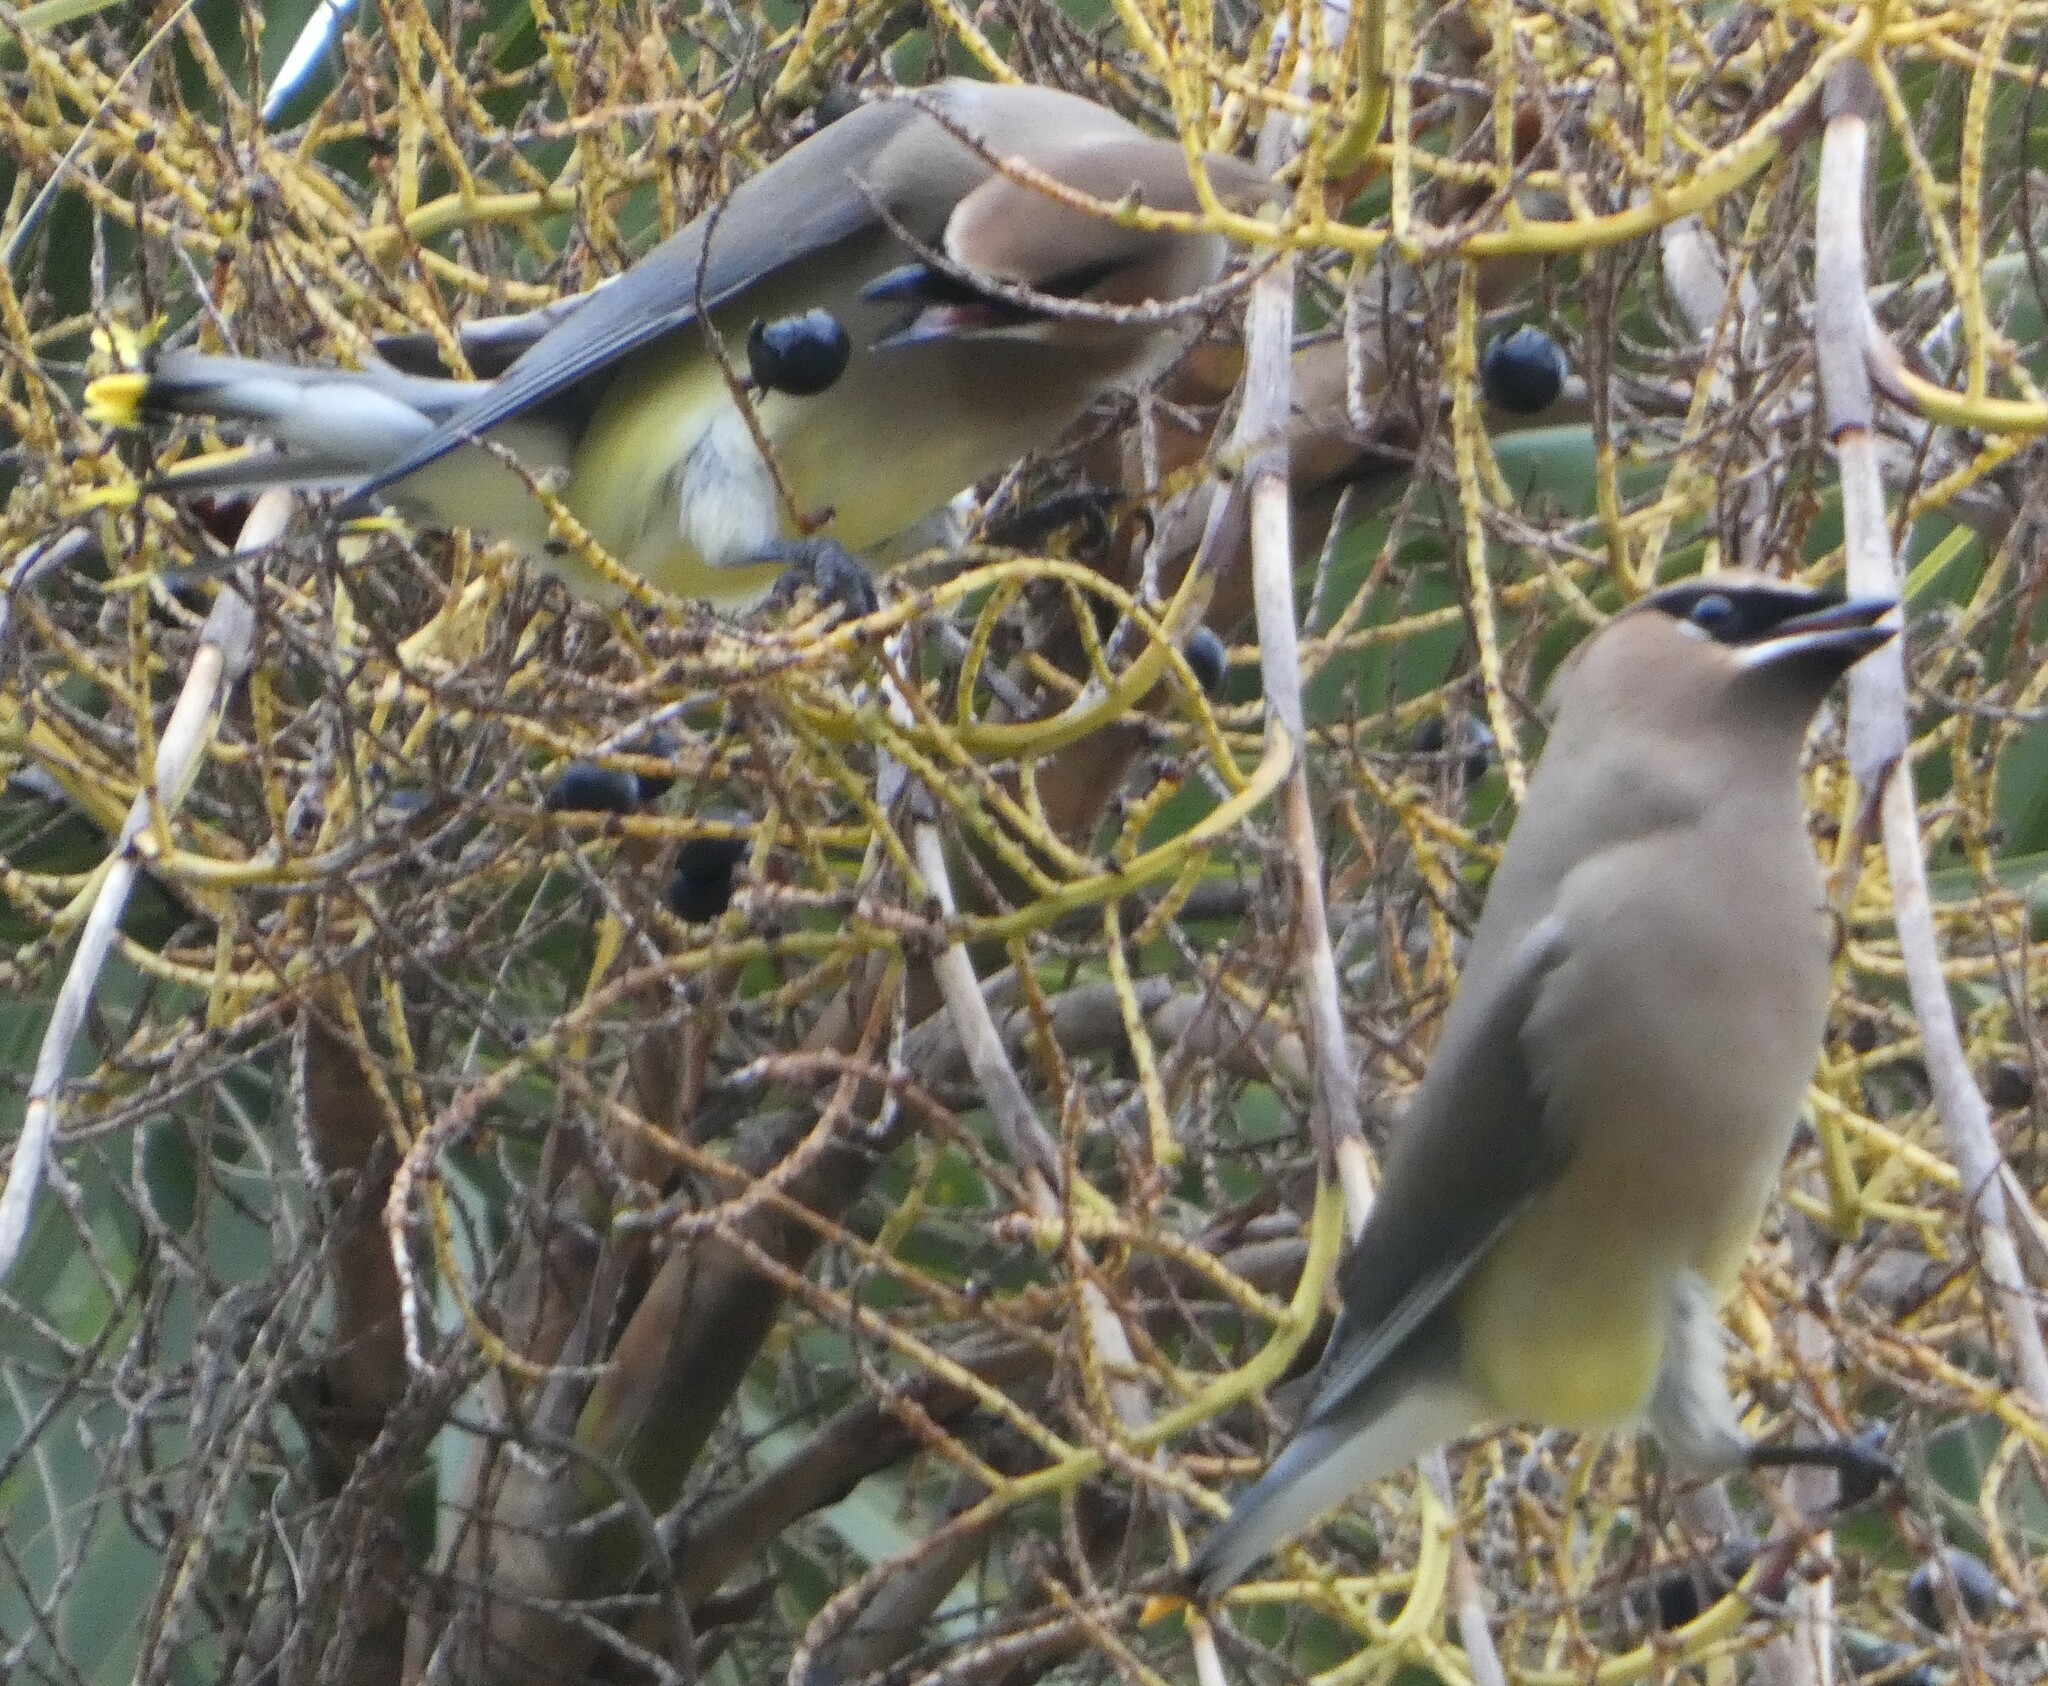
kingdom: Animalia
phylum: Chordata
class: Aves
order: Passeriformes
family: Bombycillidae
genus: Bombycilla
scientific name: Bombycilla cedrorum
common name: Cedar waxwing
